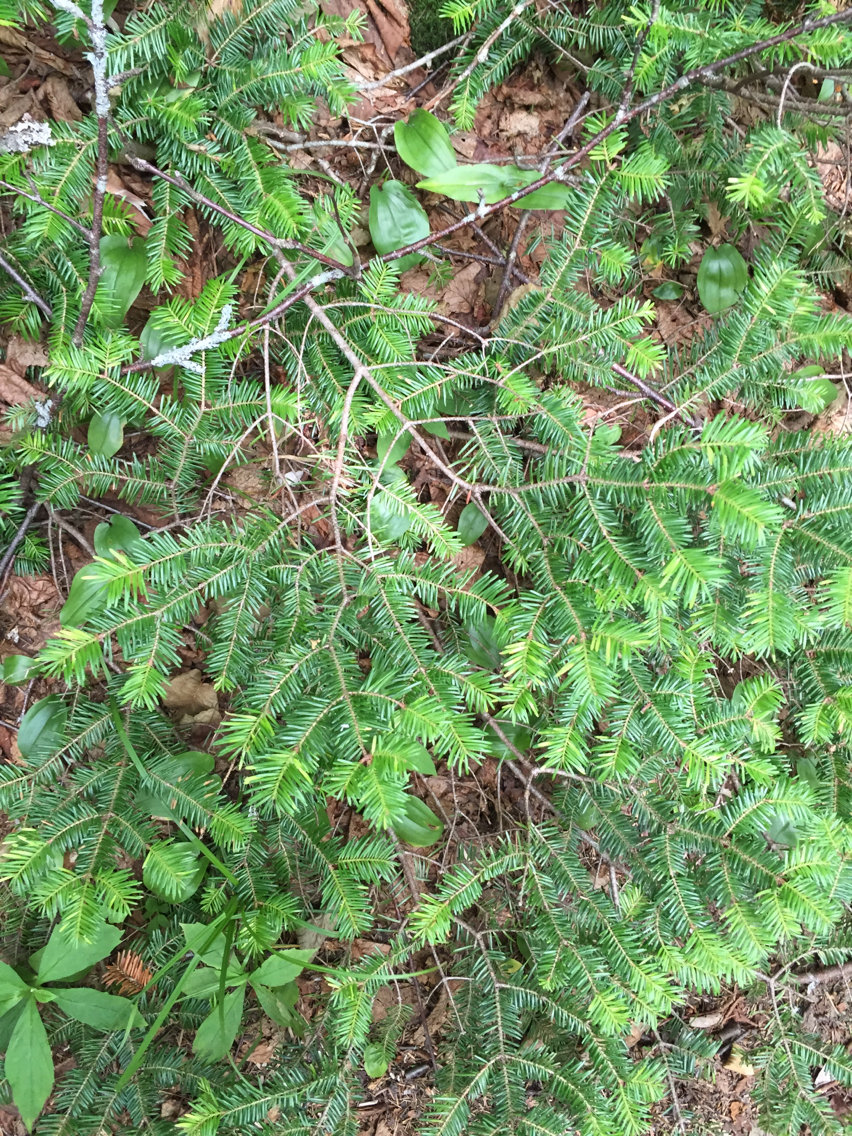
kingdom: Plantae
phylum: Tracheophyta
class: Pinopsida
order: Pinales
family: Pinaceae
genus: Abies
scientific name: Abies balsamea
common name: Balsam fir
